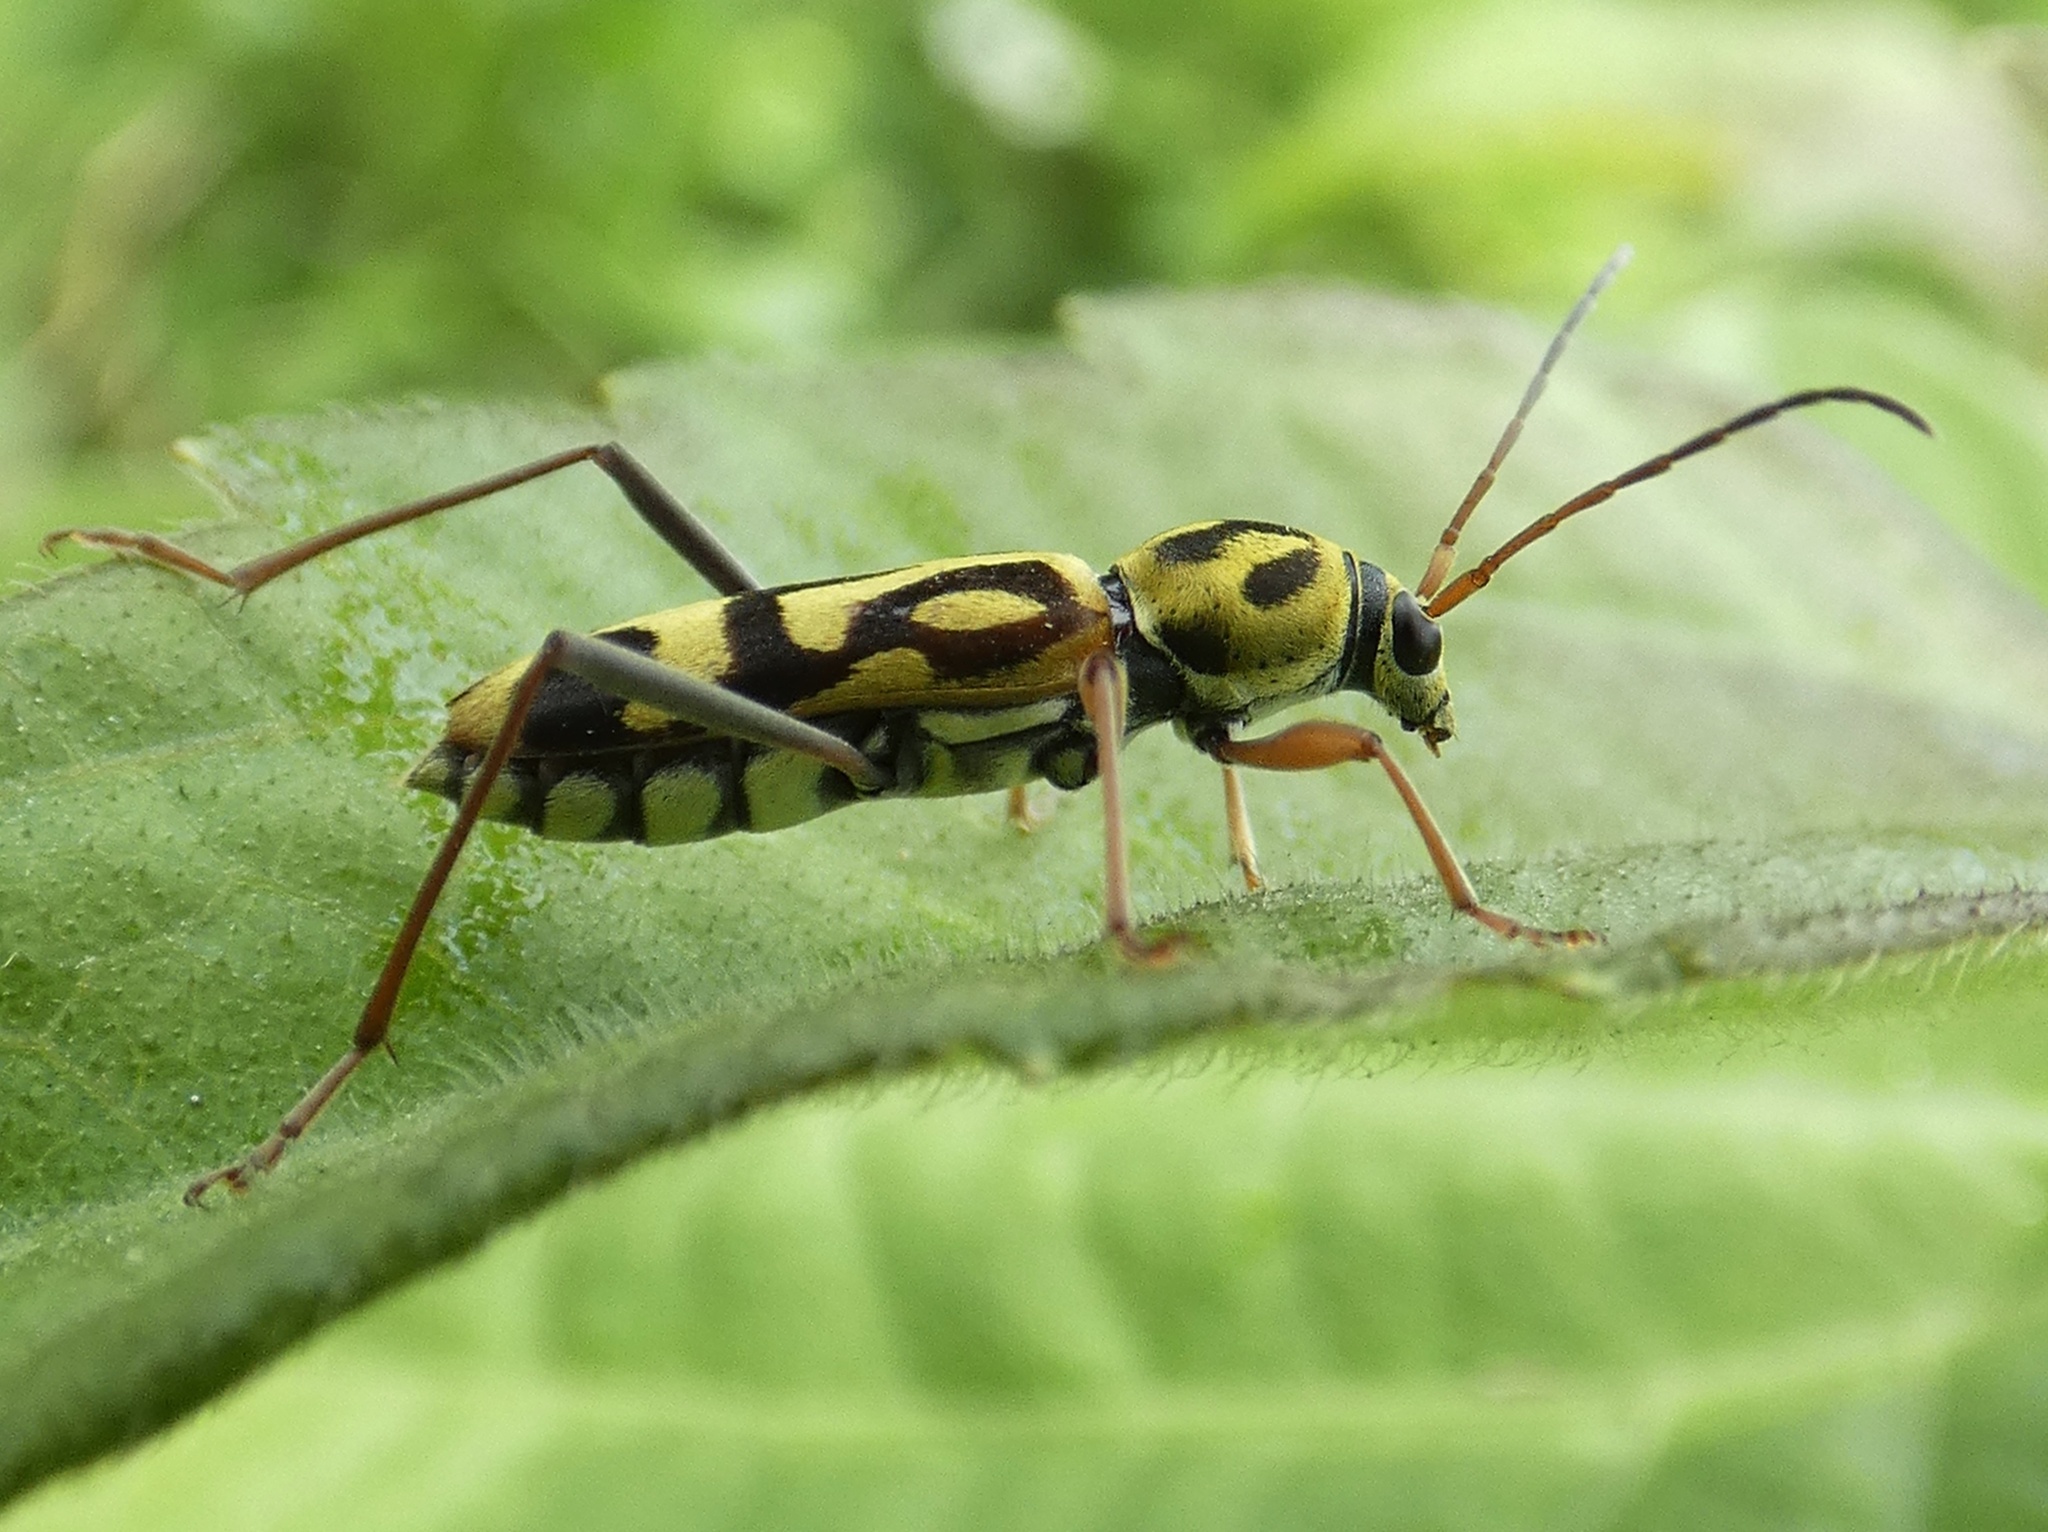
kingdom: Animalia
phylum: Arthropoda
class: Insecta
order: Coleoptera
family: Cerambycidae
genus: Chlorophorus
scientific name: Chlorophorus annularis
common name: Bamboo longhorn beetle
